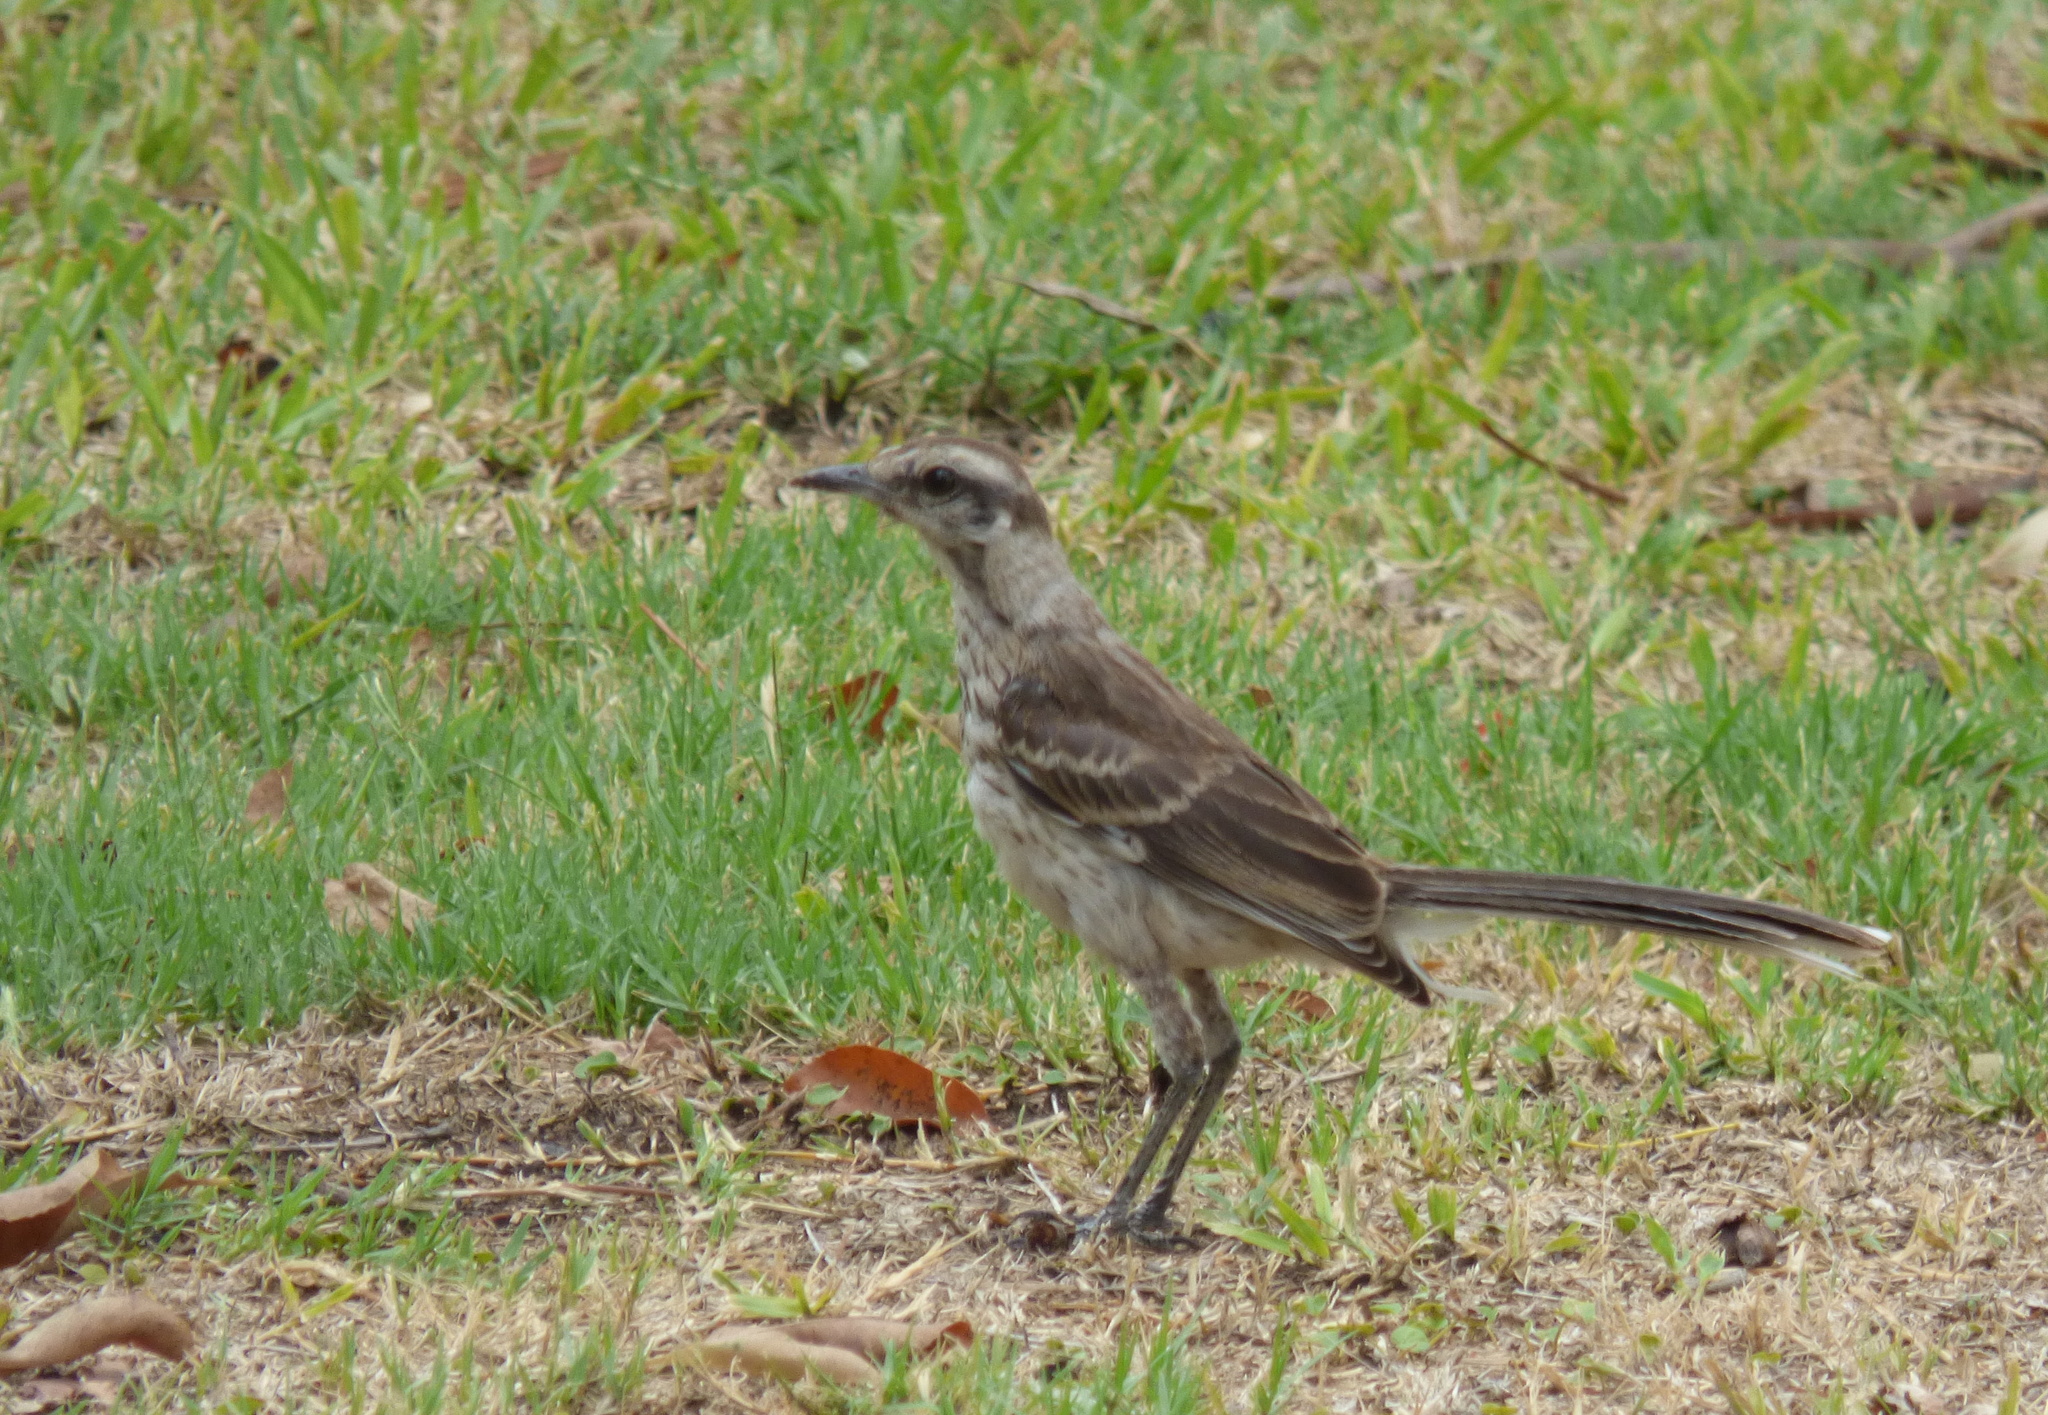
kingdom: Animalia
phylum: Chordata
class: Aves
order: Passeriformes
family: Mimidae
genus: Mimus
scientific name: Mimus saturninus
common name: Chalk-browed mockingbird
